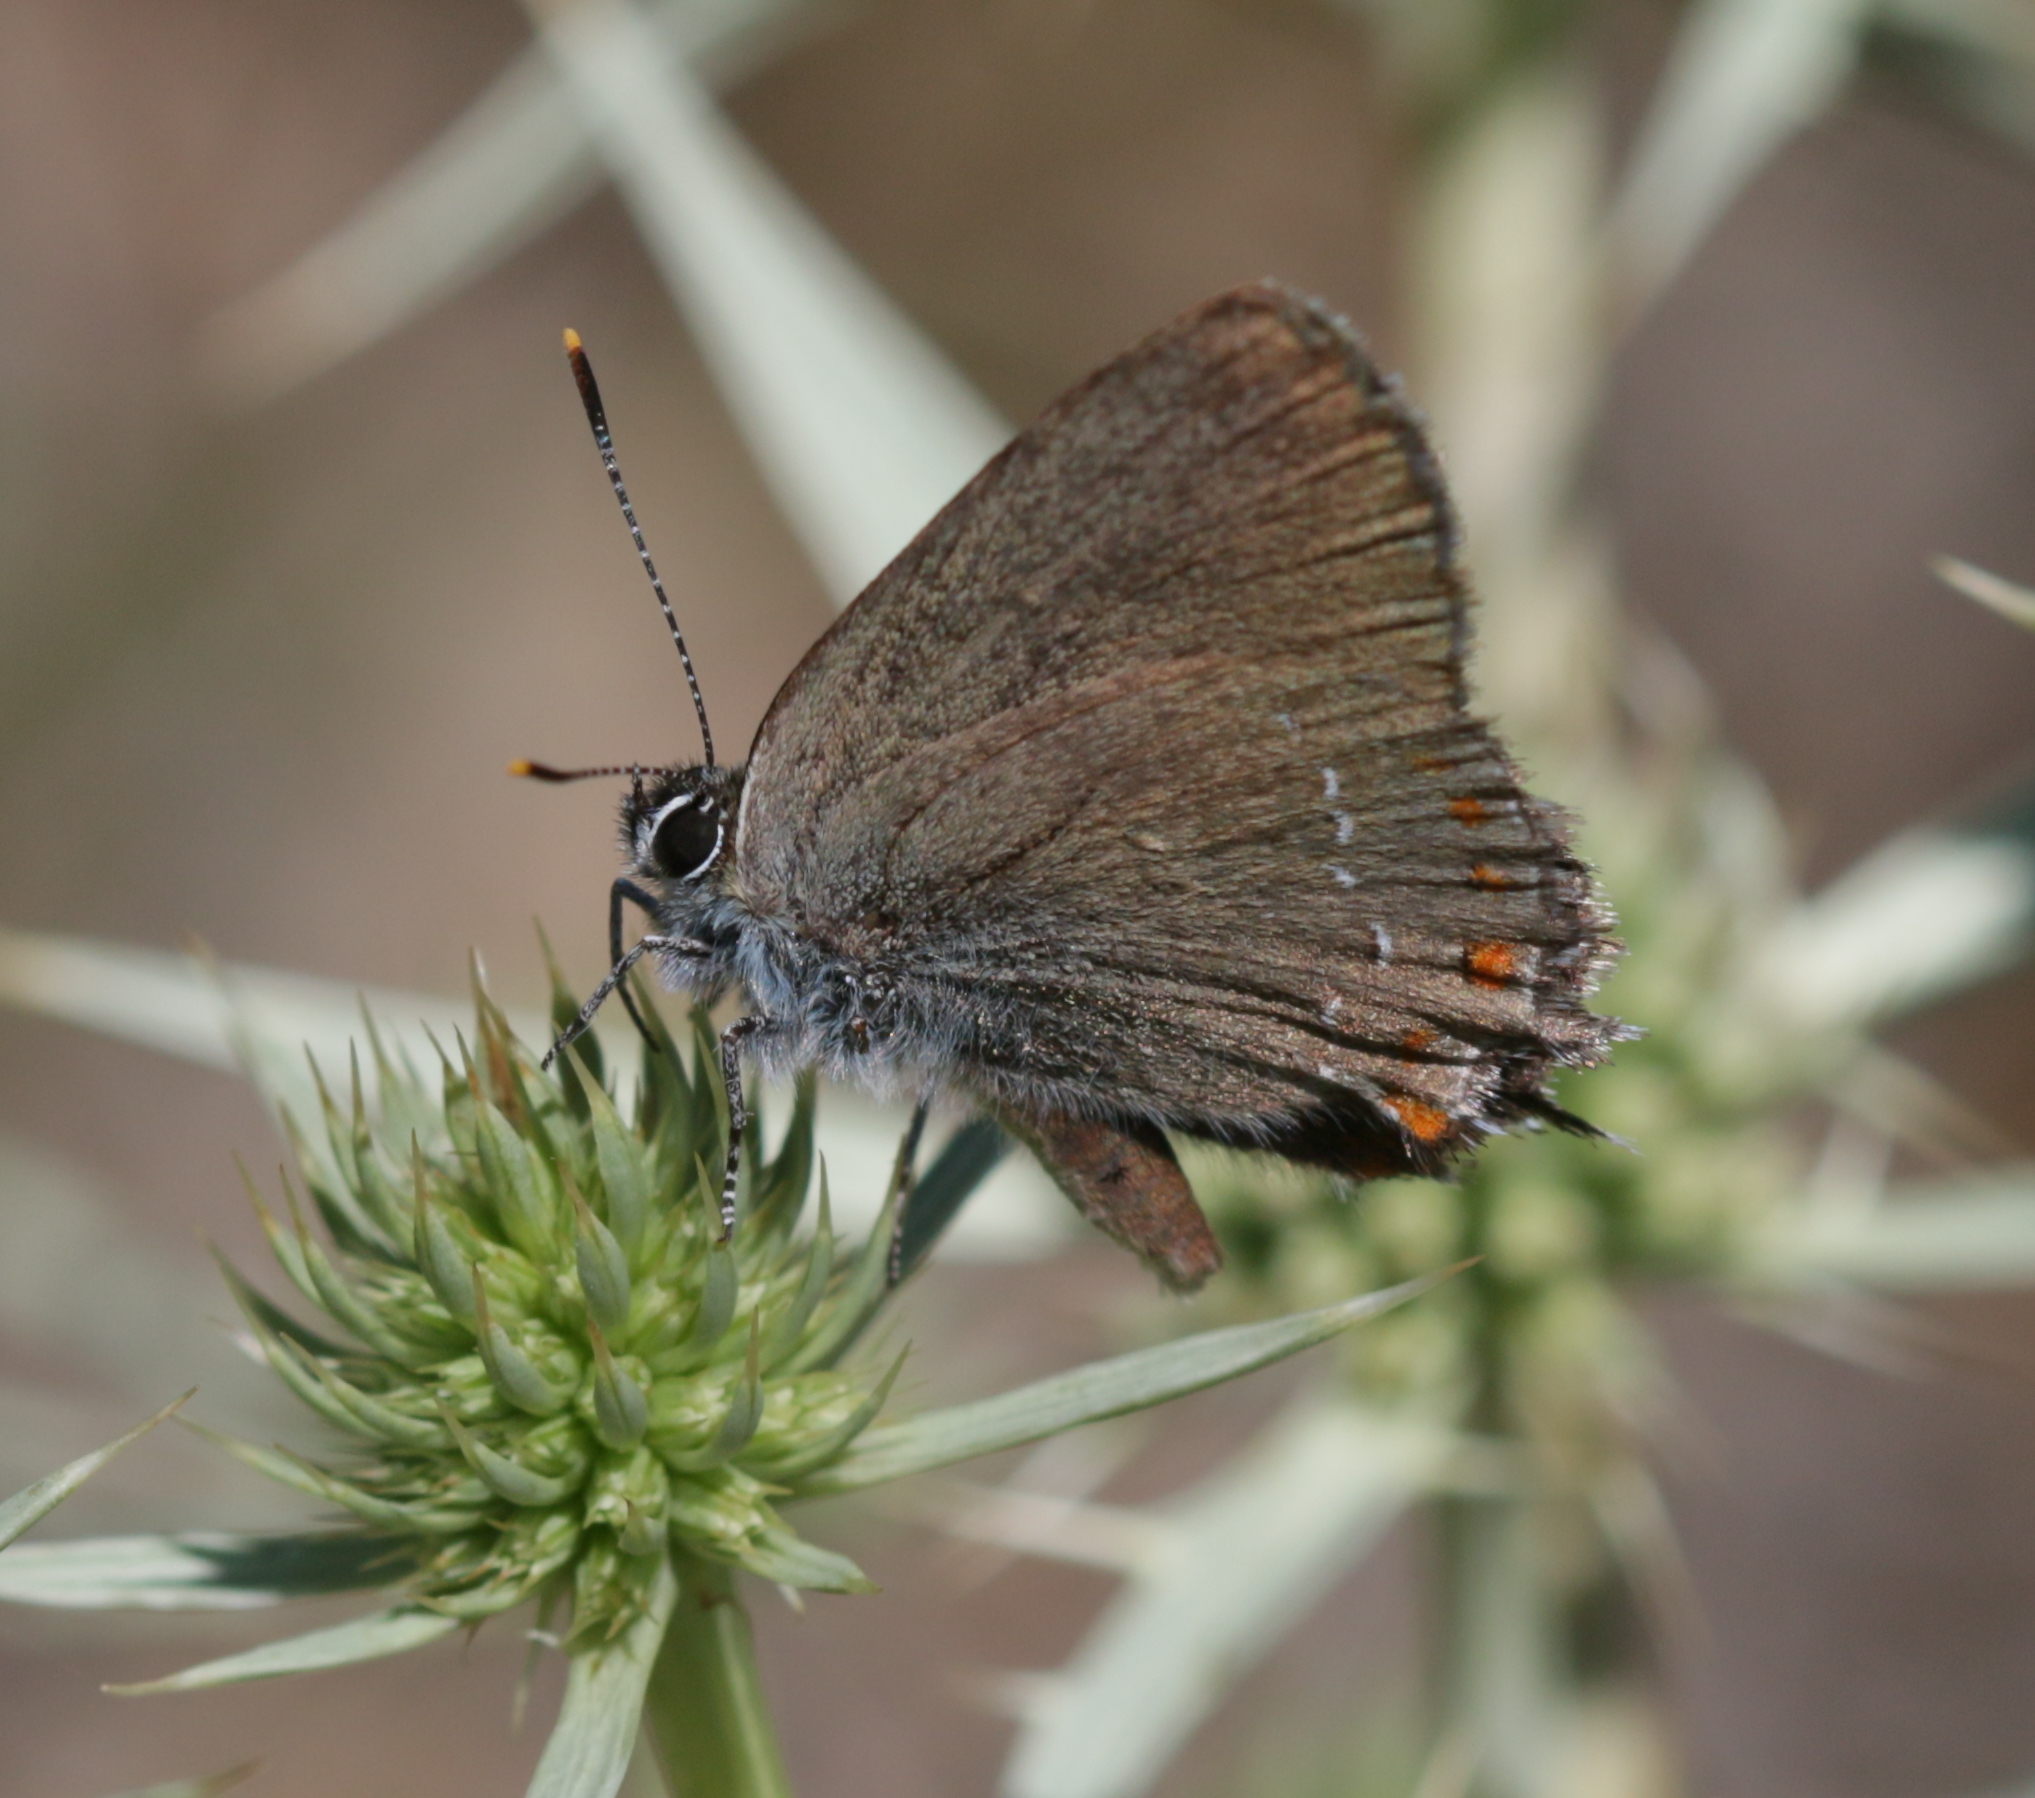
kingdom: Animalia
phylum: Arthropoda
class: Insecta
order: Lepidoptera
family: Lycaenidae
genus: Fixsenia
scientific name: Fixsenia esculi
